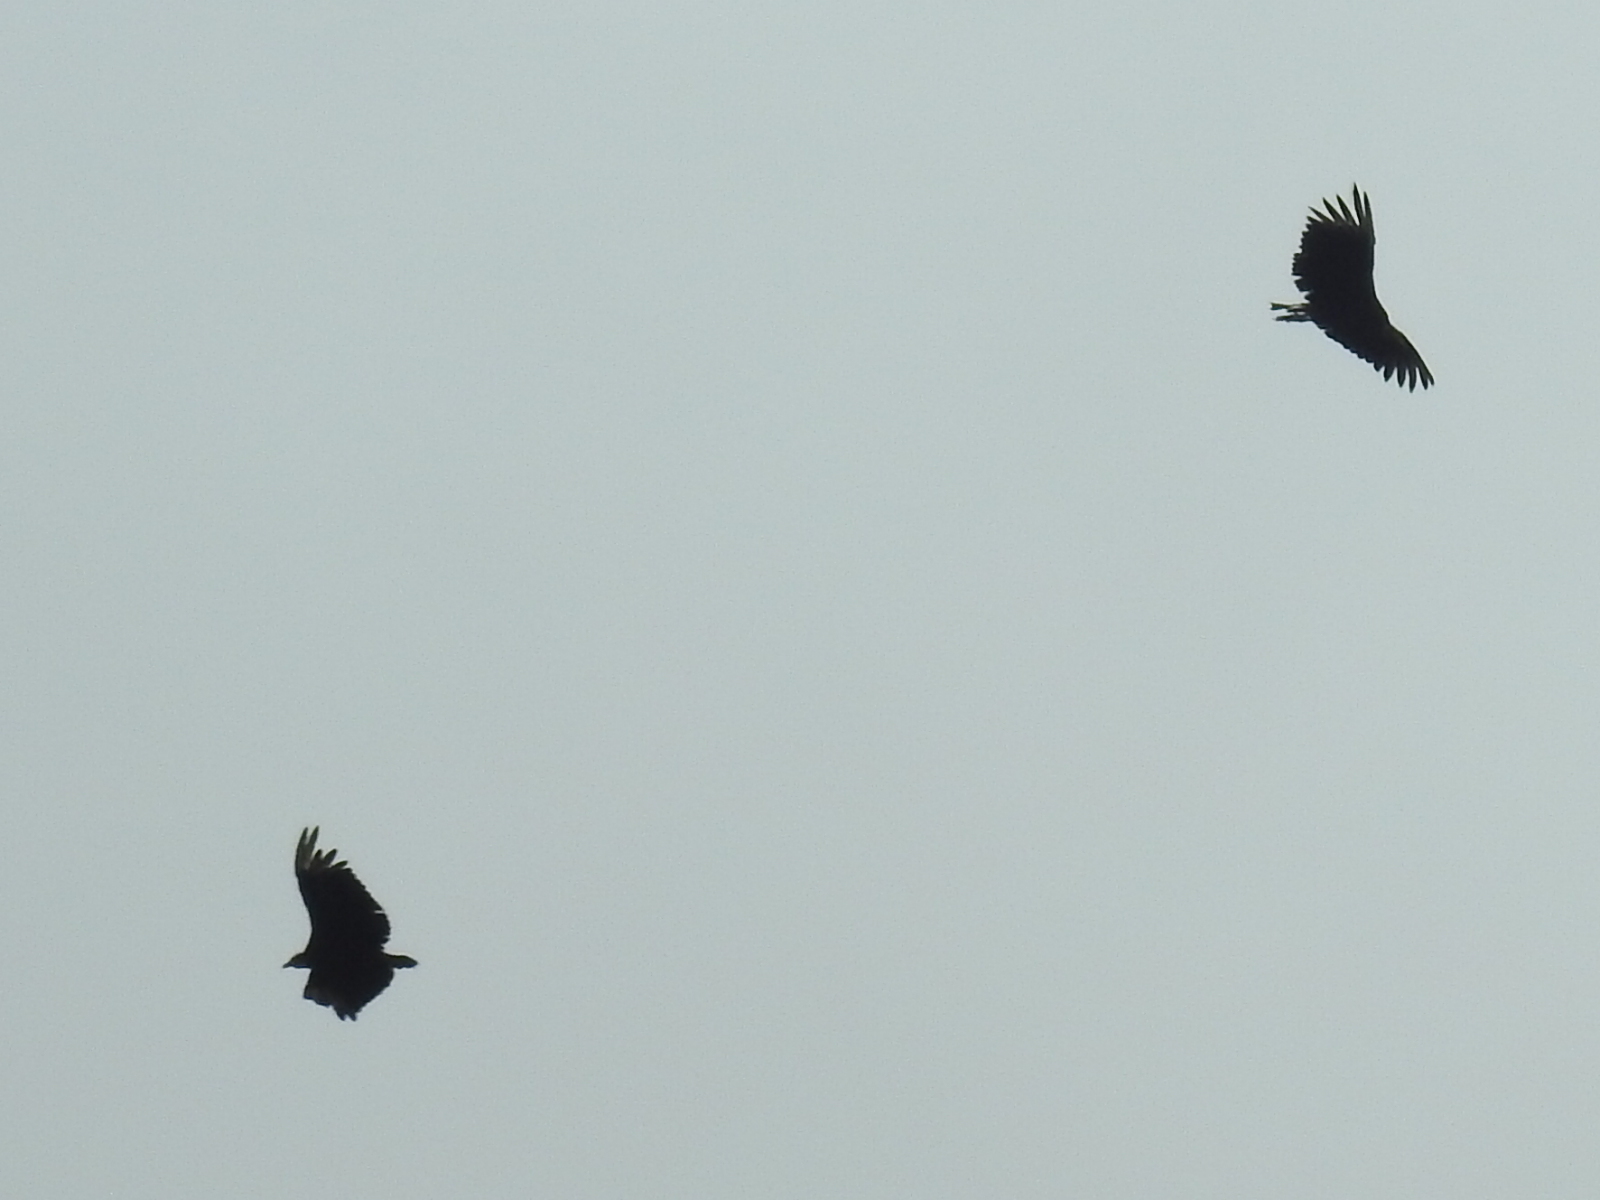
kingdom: Animalia
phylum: Chordata
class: Aves
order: Accipitriformes
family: Cathartidae
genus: Coragyps
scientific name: Coragyps atratus
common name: Black vulture
